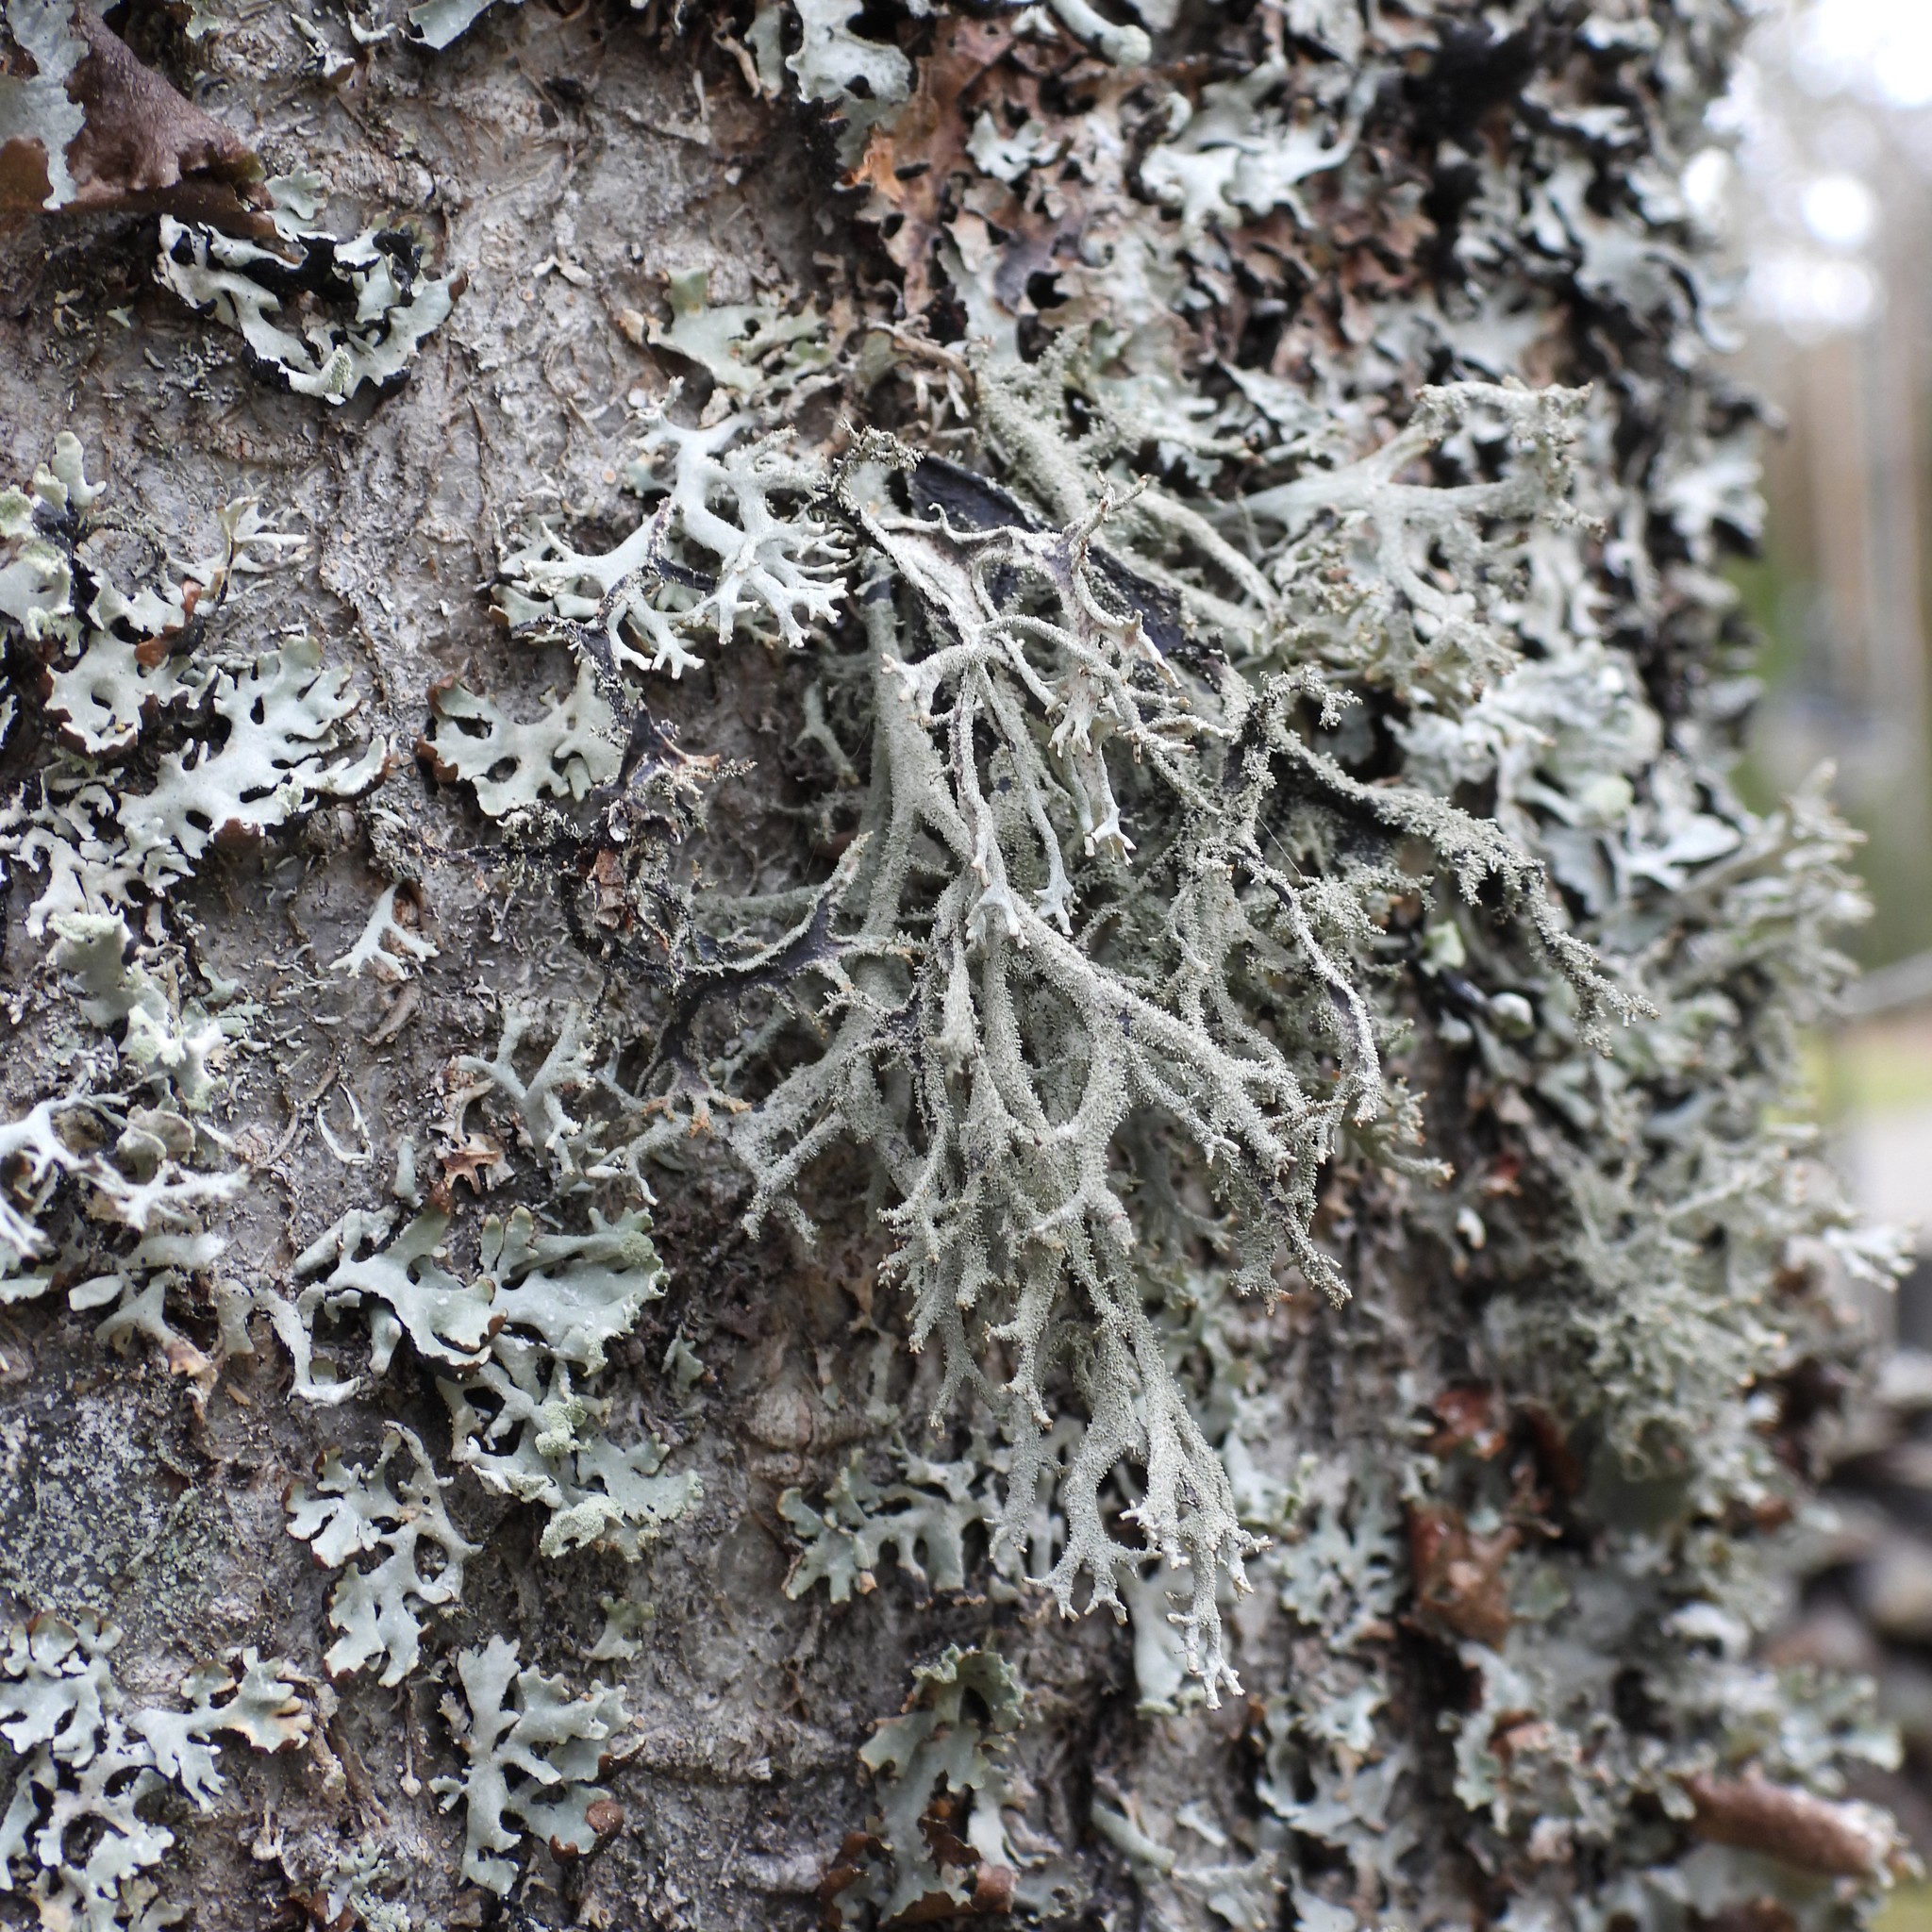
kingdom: Fungi
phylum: Ascomycota
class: Lecanoromycetes
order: Lecanorales
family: Parmeliaceae
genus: Pseudevernia
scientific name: Pseudevernia furfuracea
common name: Tree moss
